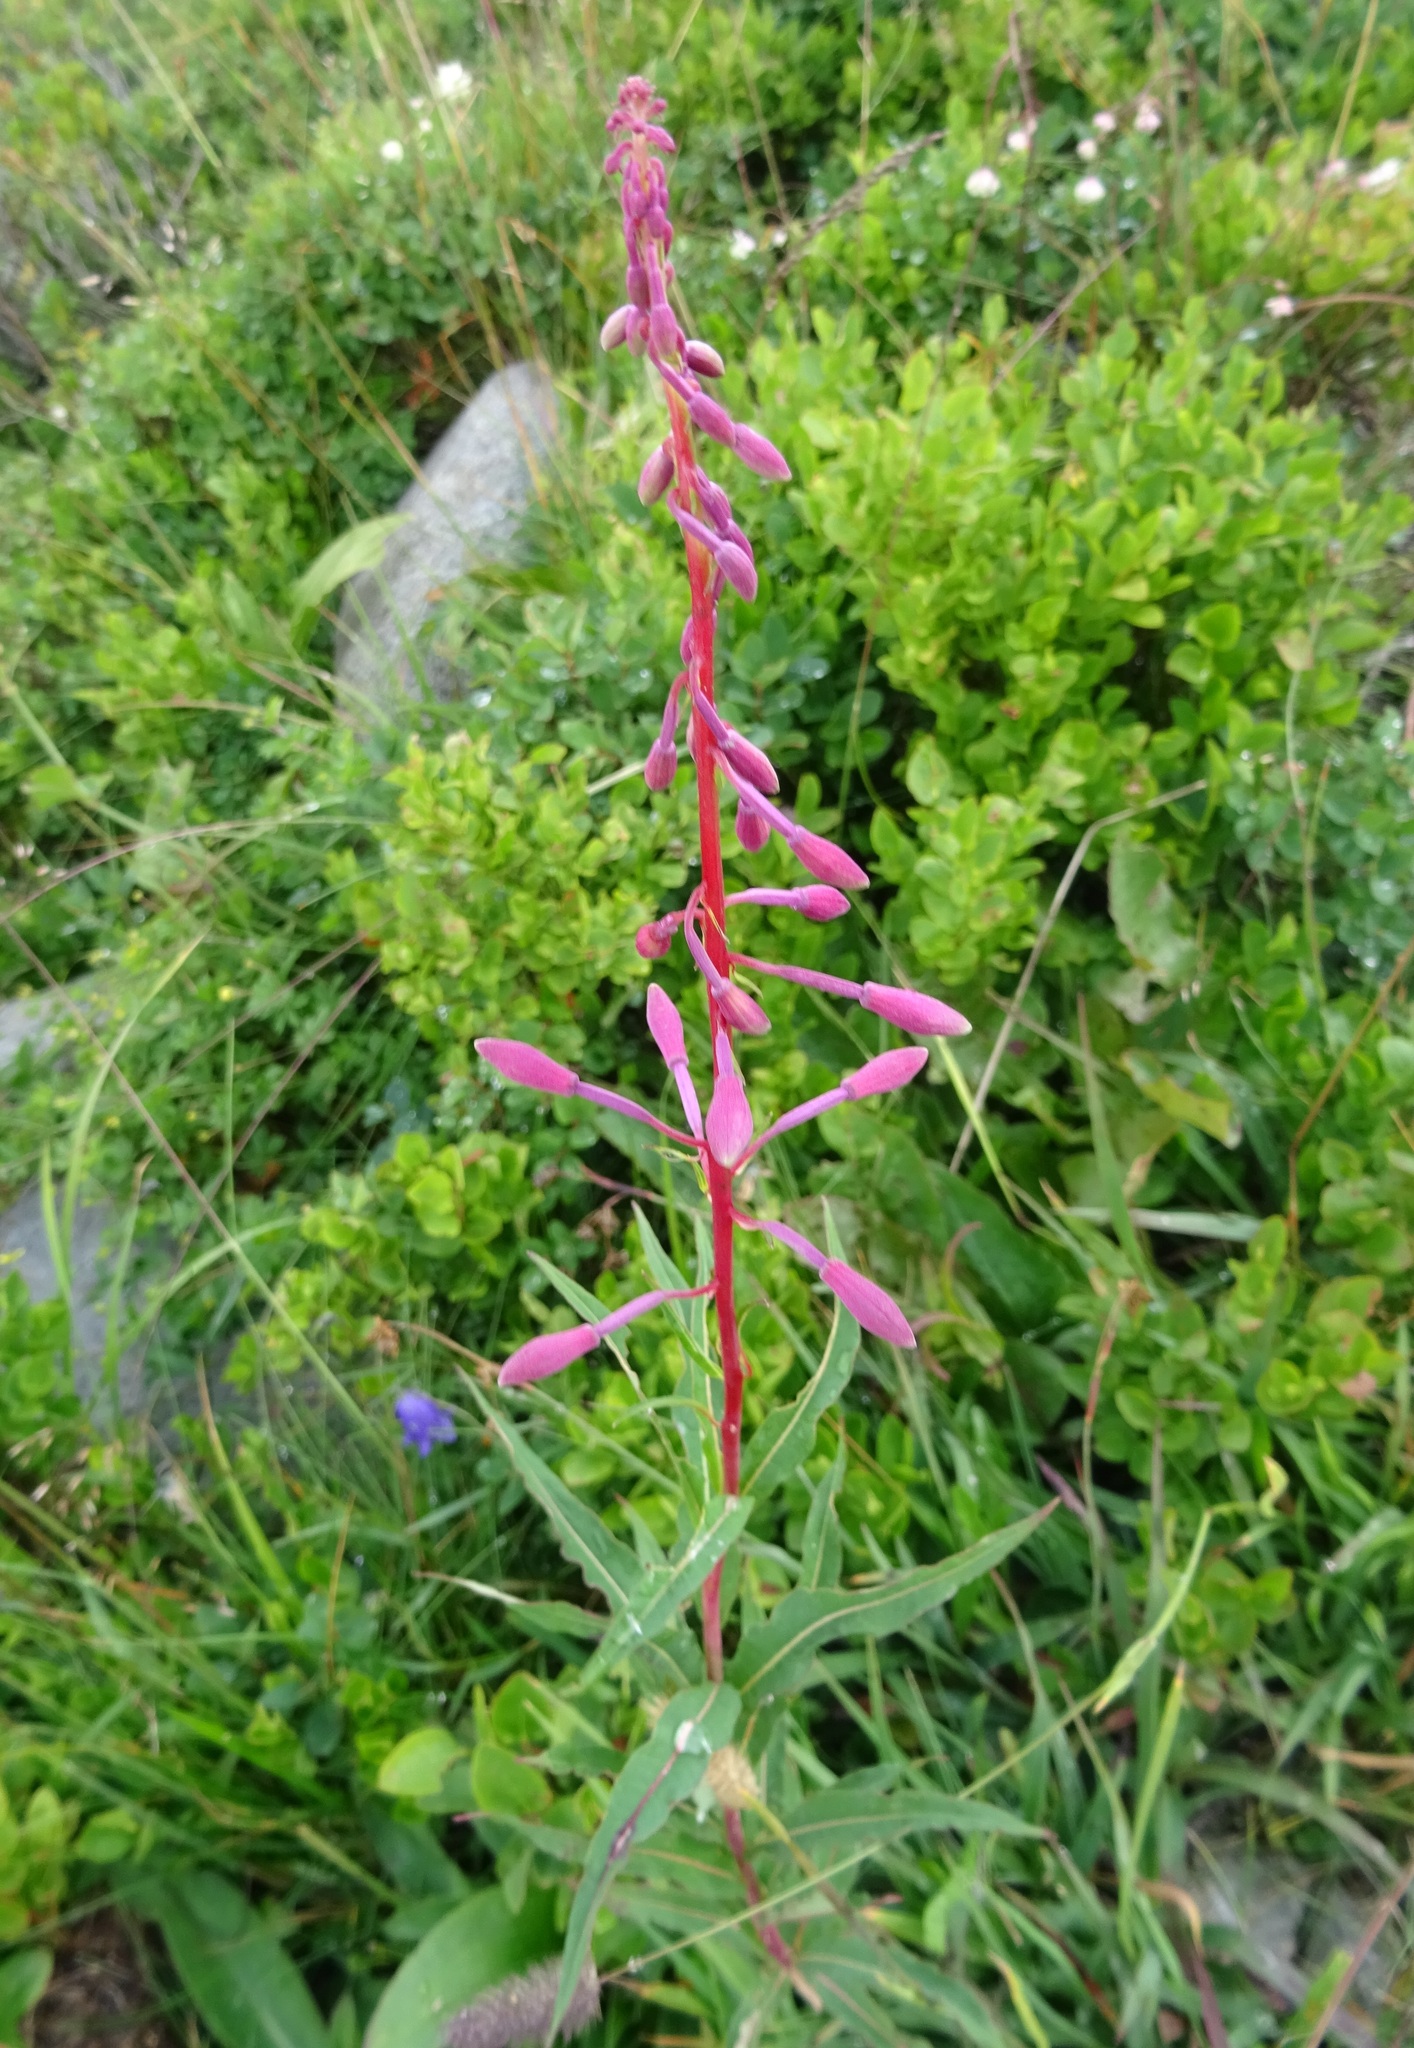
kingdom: Plantae
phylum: Tracheophyta
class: Magnoliopsida
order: Myrtales
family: Onagraceae
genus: Chamaenerion
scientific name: Chamaenerion angustifolium
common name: Fireweed
